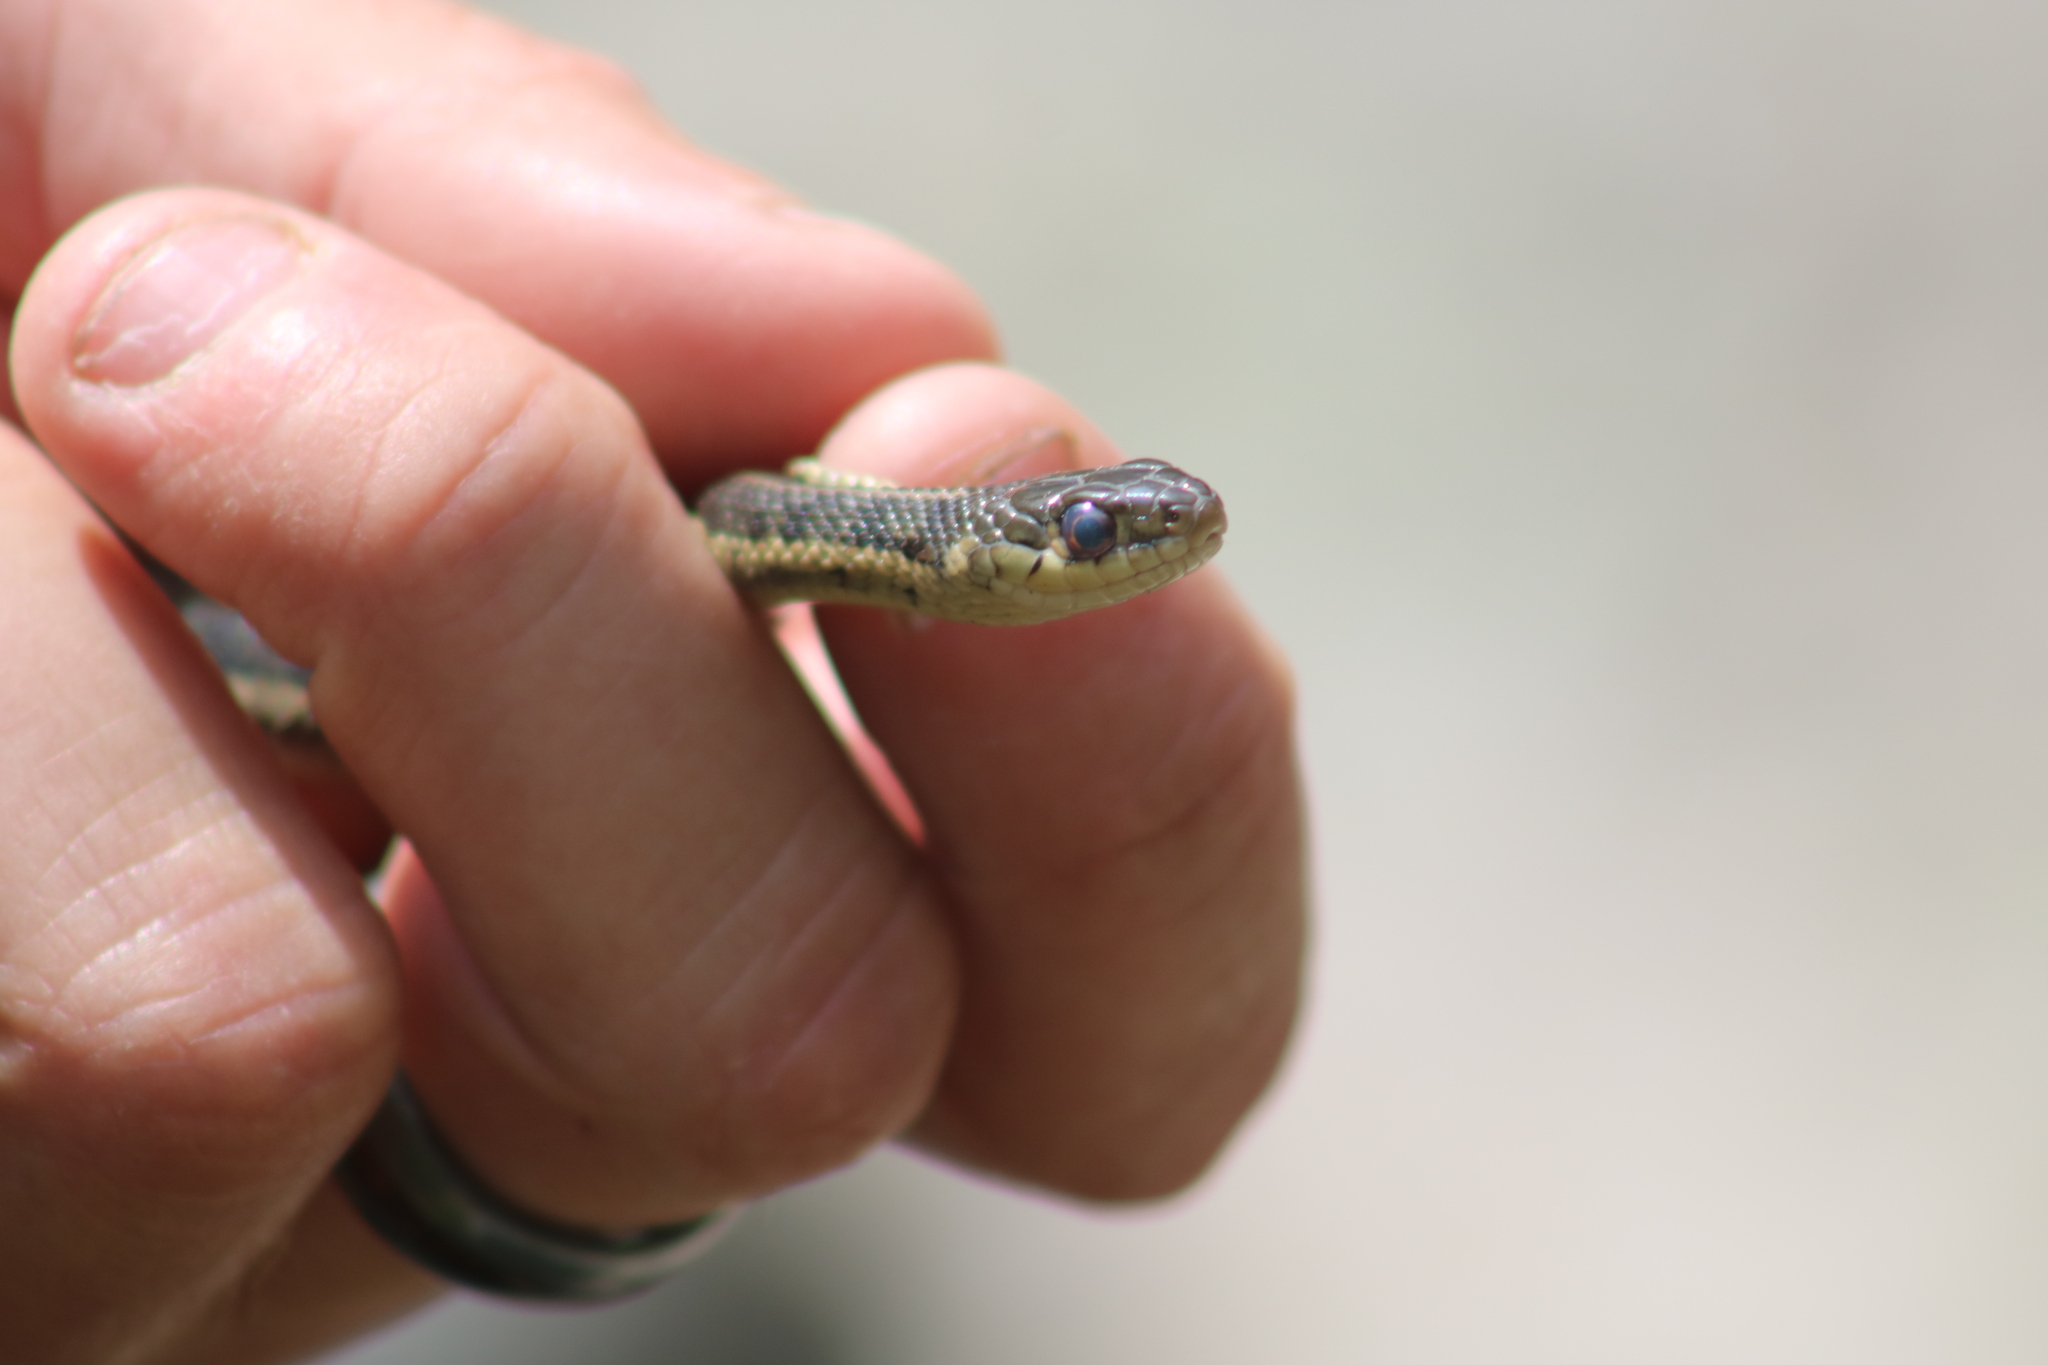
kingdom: Animalia
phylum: Chordata
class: Squamata
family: Colubridae
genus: Thamnophis
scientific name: Thamnophis sirtalis
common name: Common garter snake
